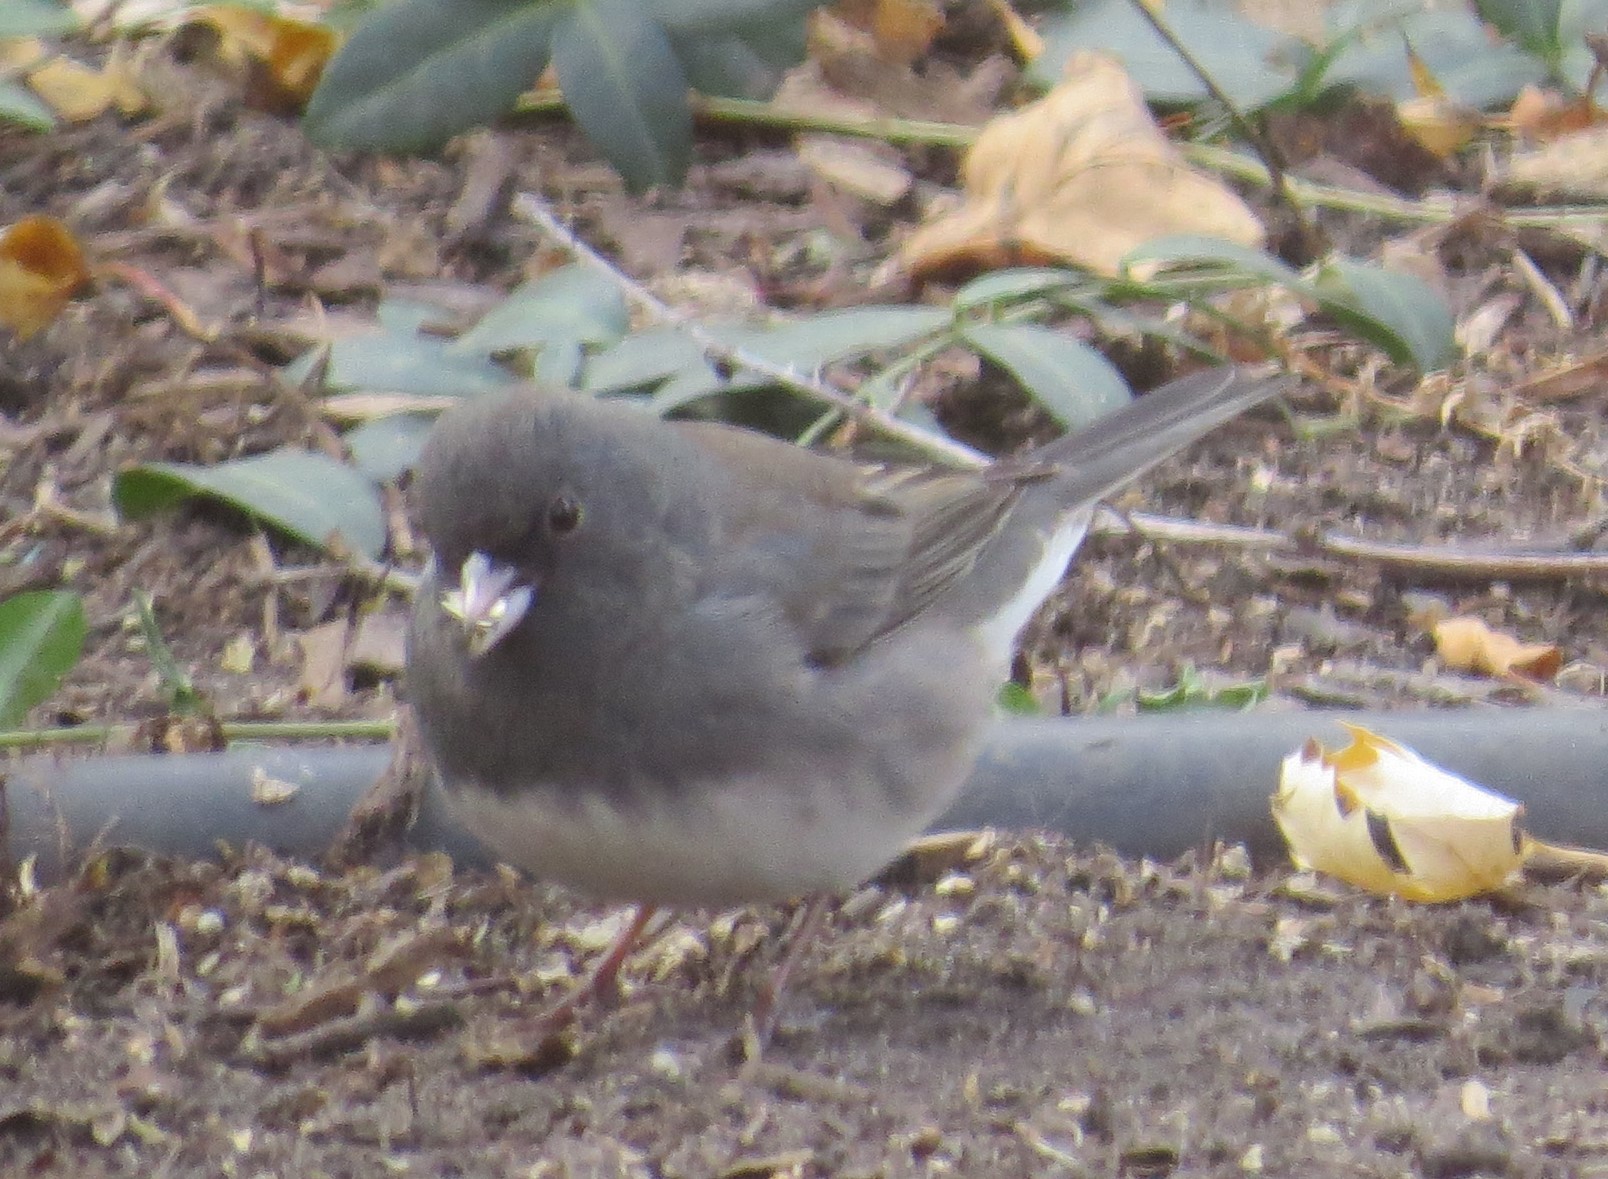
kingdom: Animalia
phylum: Chordata
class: Aves
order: Passeriformes
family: Passerellidae
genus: Junco
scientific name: Junco hyemalis
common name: Dark-eyed junco
